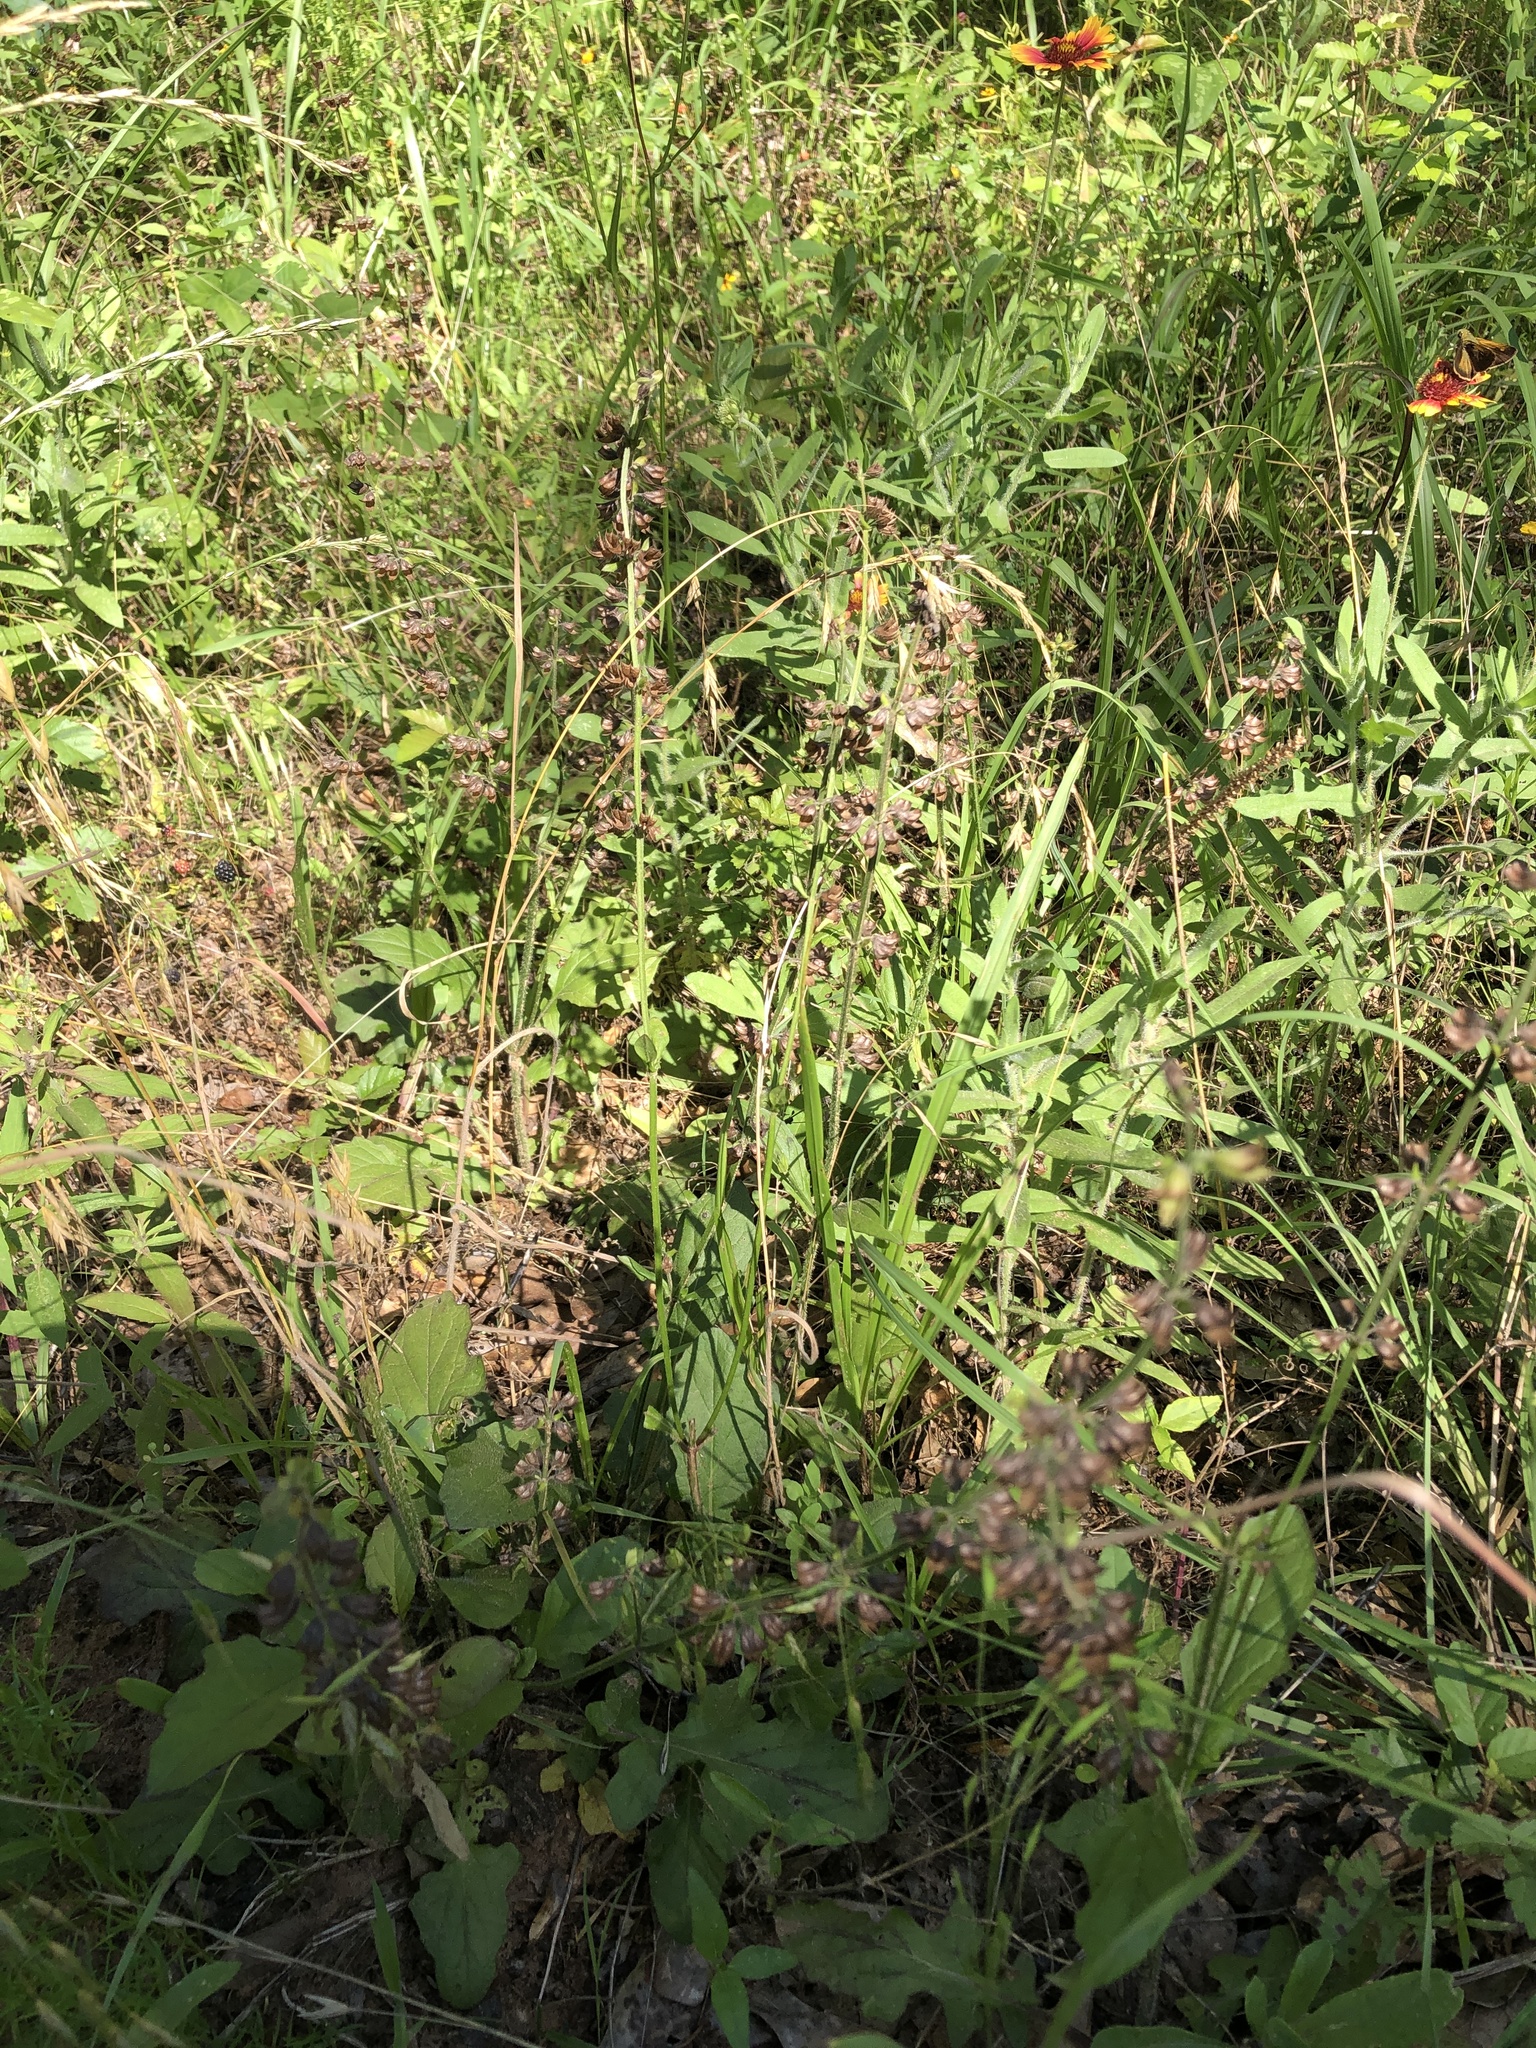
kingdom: Plantae
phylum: Tracheophyta
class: Magnoliopsida
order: Lamiales
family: Lamiaceae
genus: Salvia
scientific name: Salvia lyrata
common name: Cancerweed
